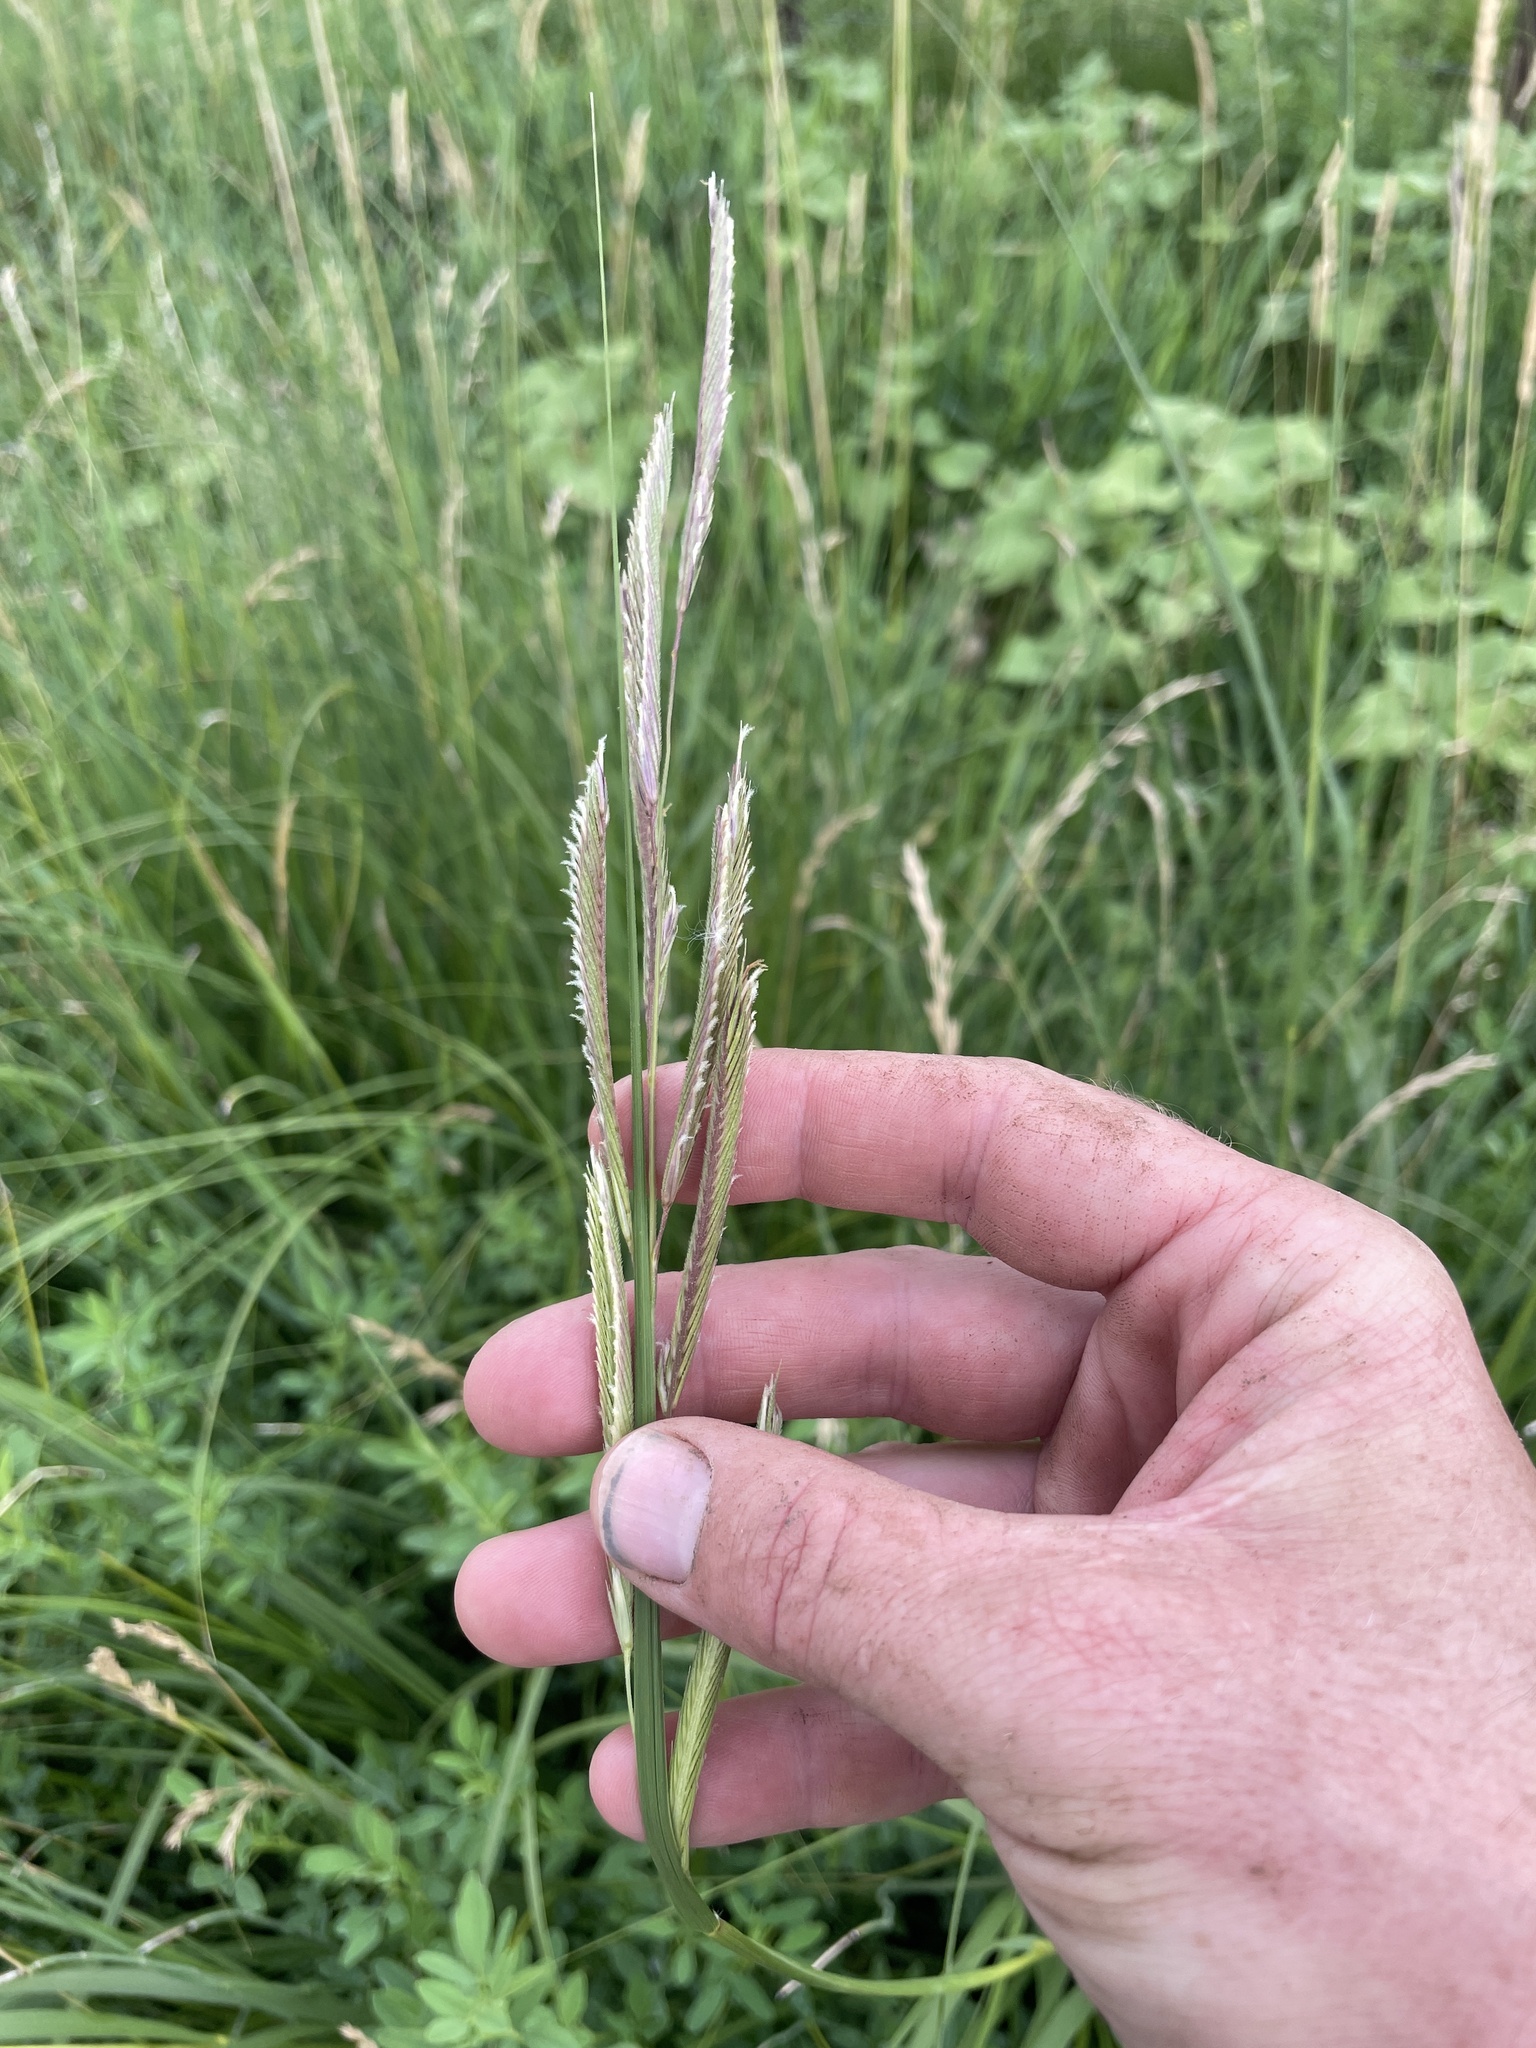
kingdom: Plantae
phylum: Tracheophyta
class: Liliopsida
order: Poales
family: Poaceae
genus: Sporobolus
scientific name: Sporobolus michauxianus
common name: Freshwater cordgrass
